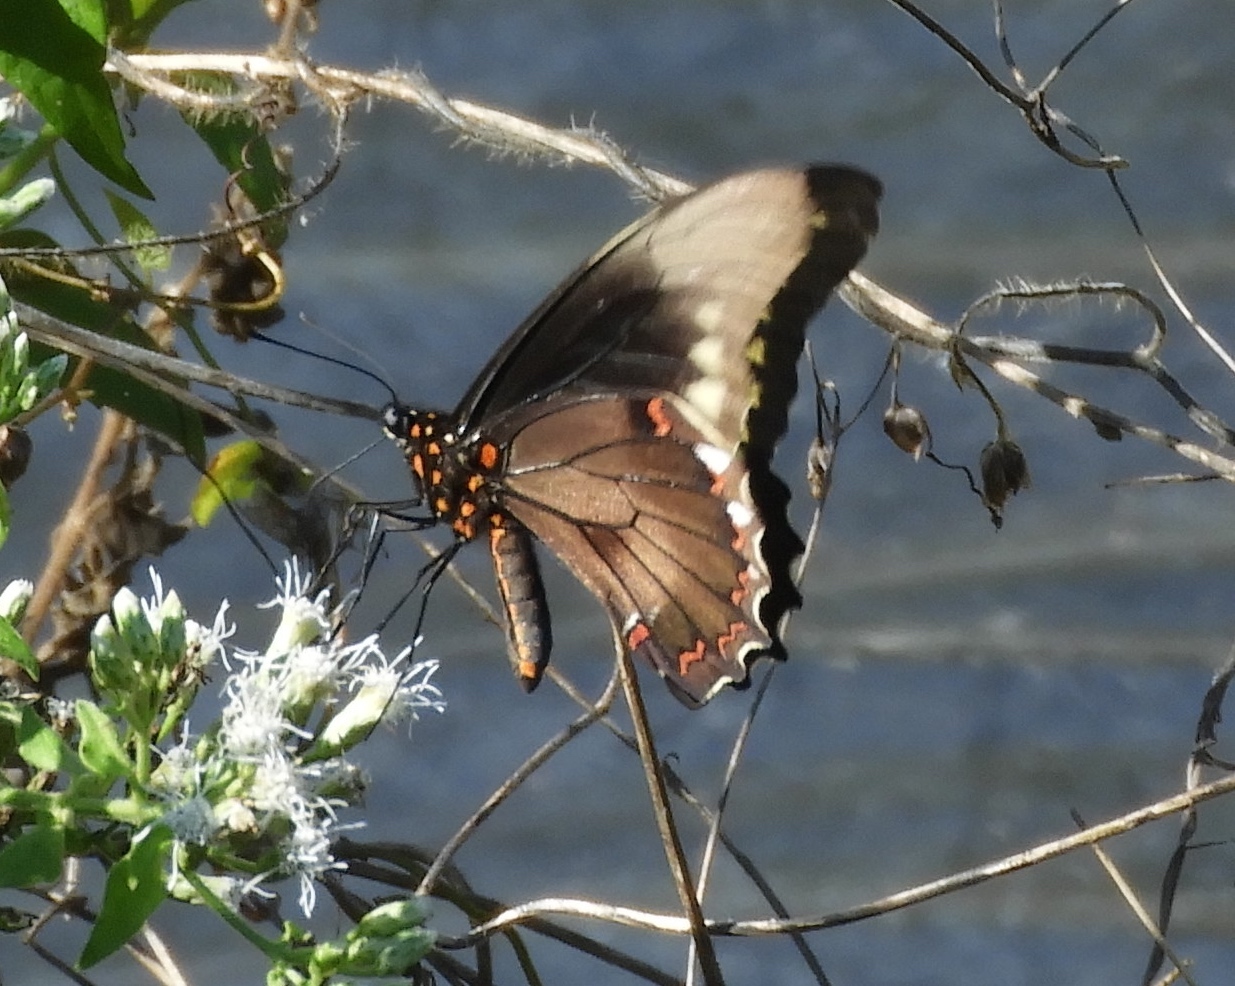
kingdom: Animalia
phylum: Arthropoda
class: Insecta
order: Lepidoptera
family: Papilionidae
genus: Battus
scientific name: Battus polydamas
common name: Polydamas swallowtail
